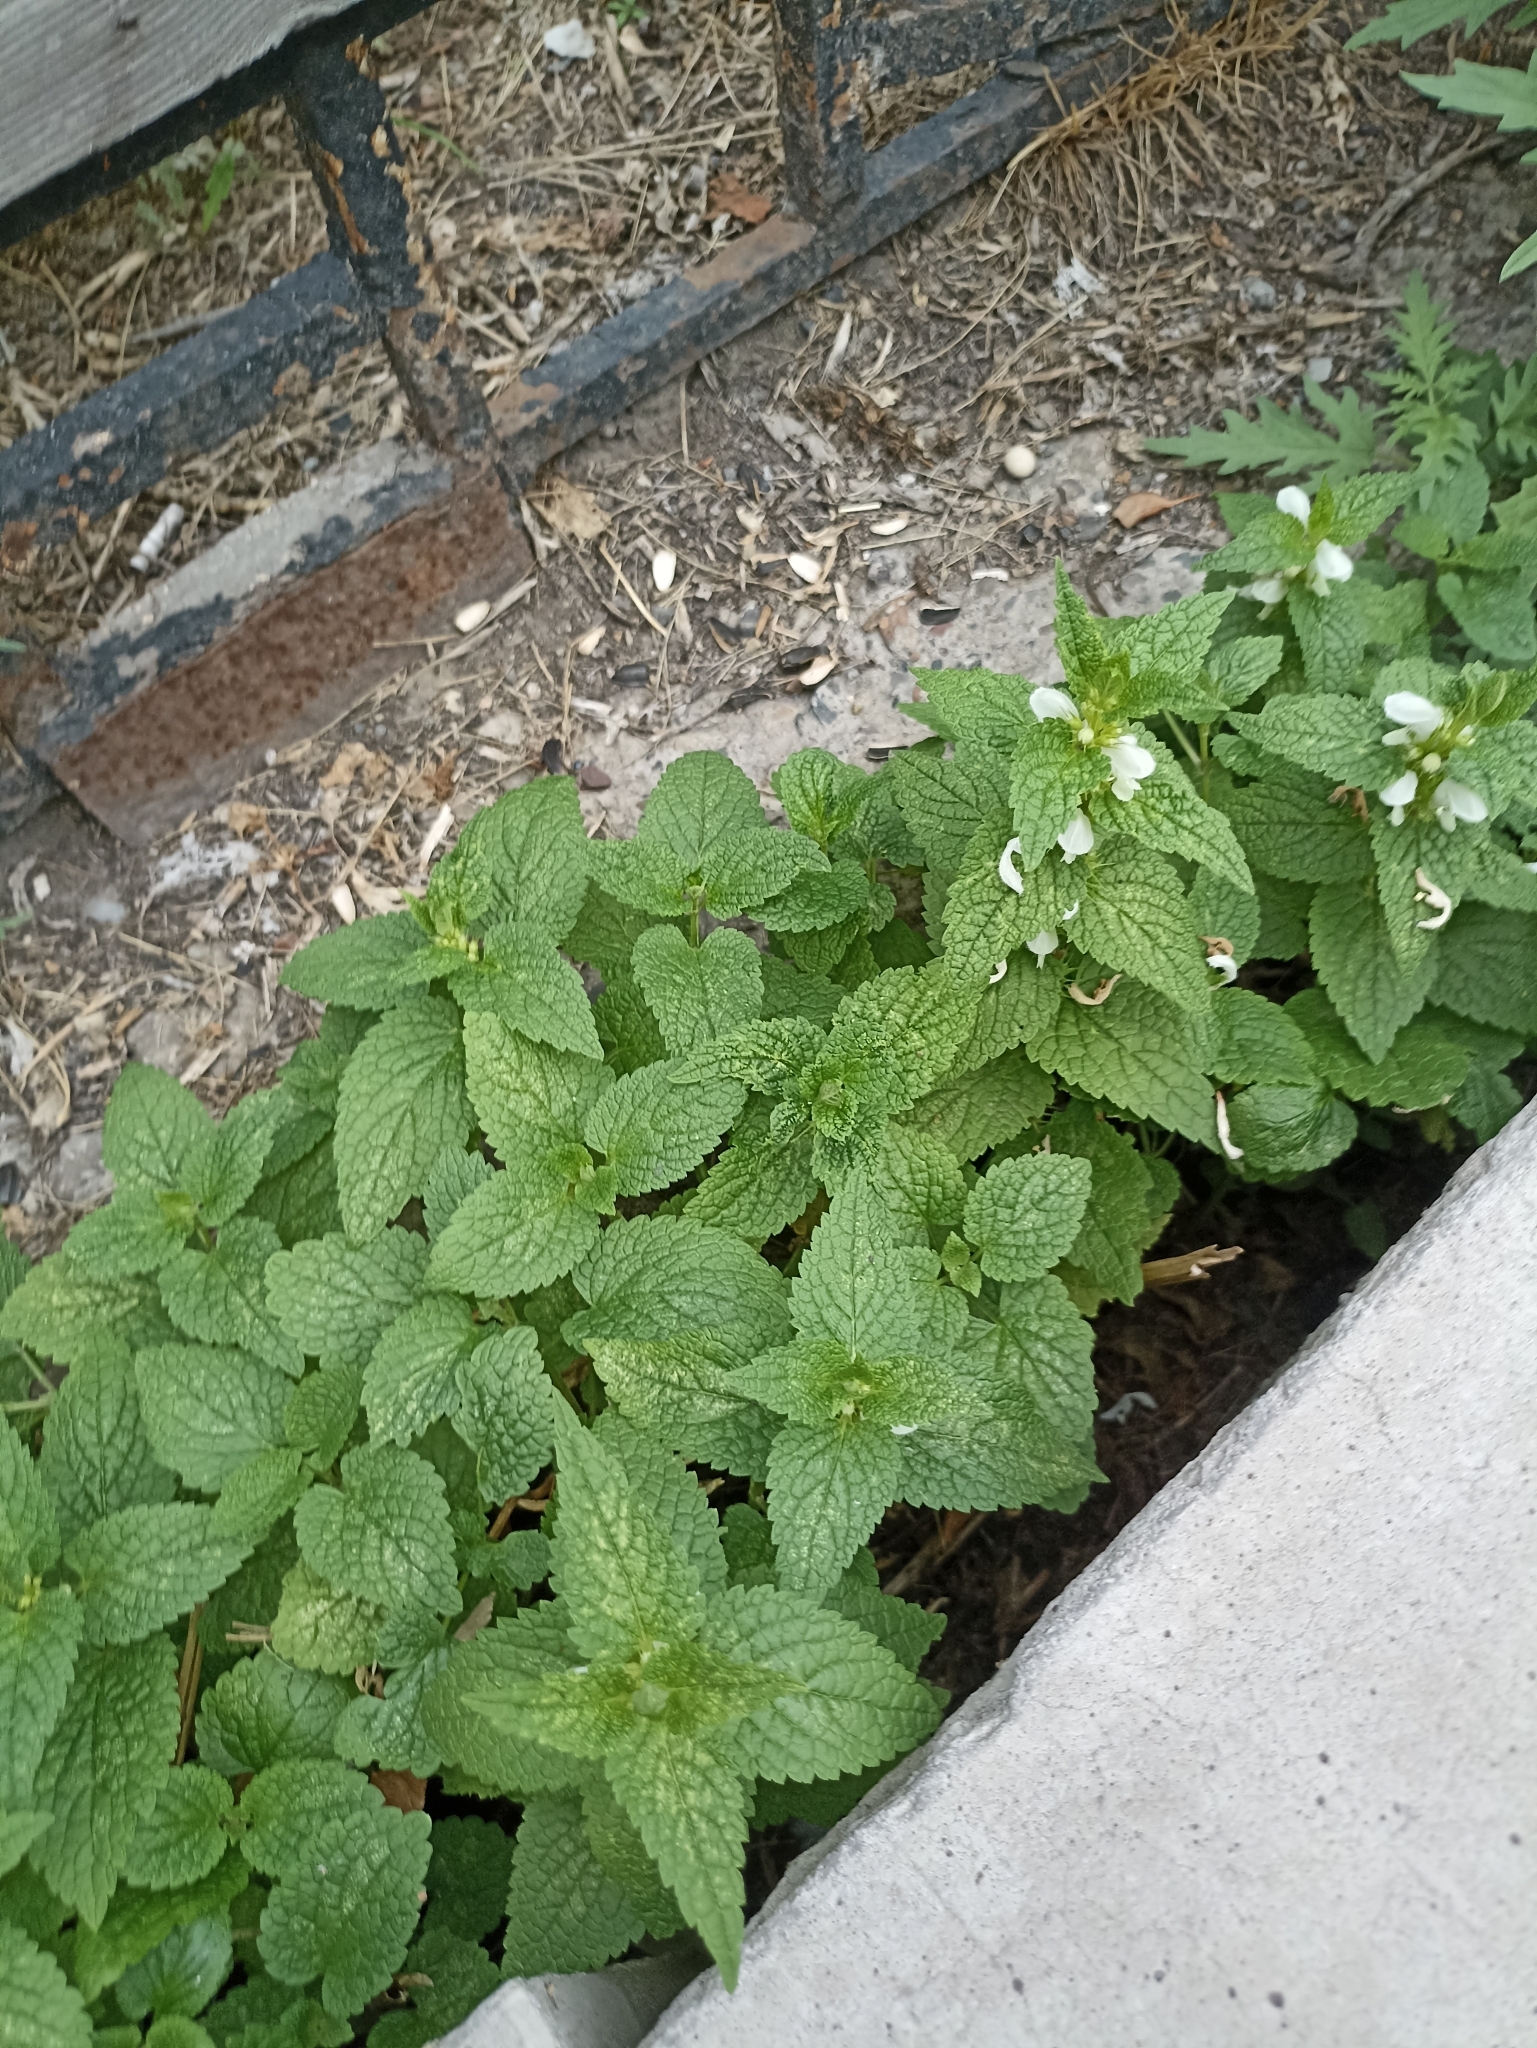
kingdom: Plantae
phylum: Tracheophyta
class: Magnoliopsida
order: Lamiales
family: Lamiaceae
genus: Lamium
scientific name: Lamium album
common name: White dead-nettle
